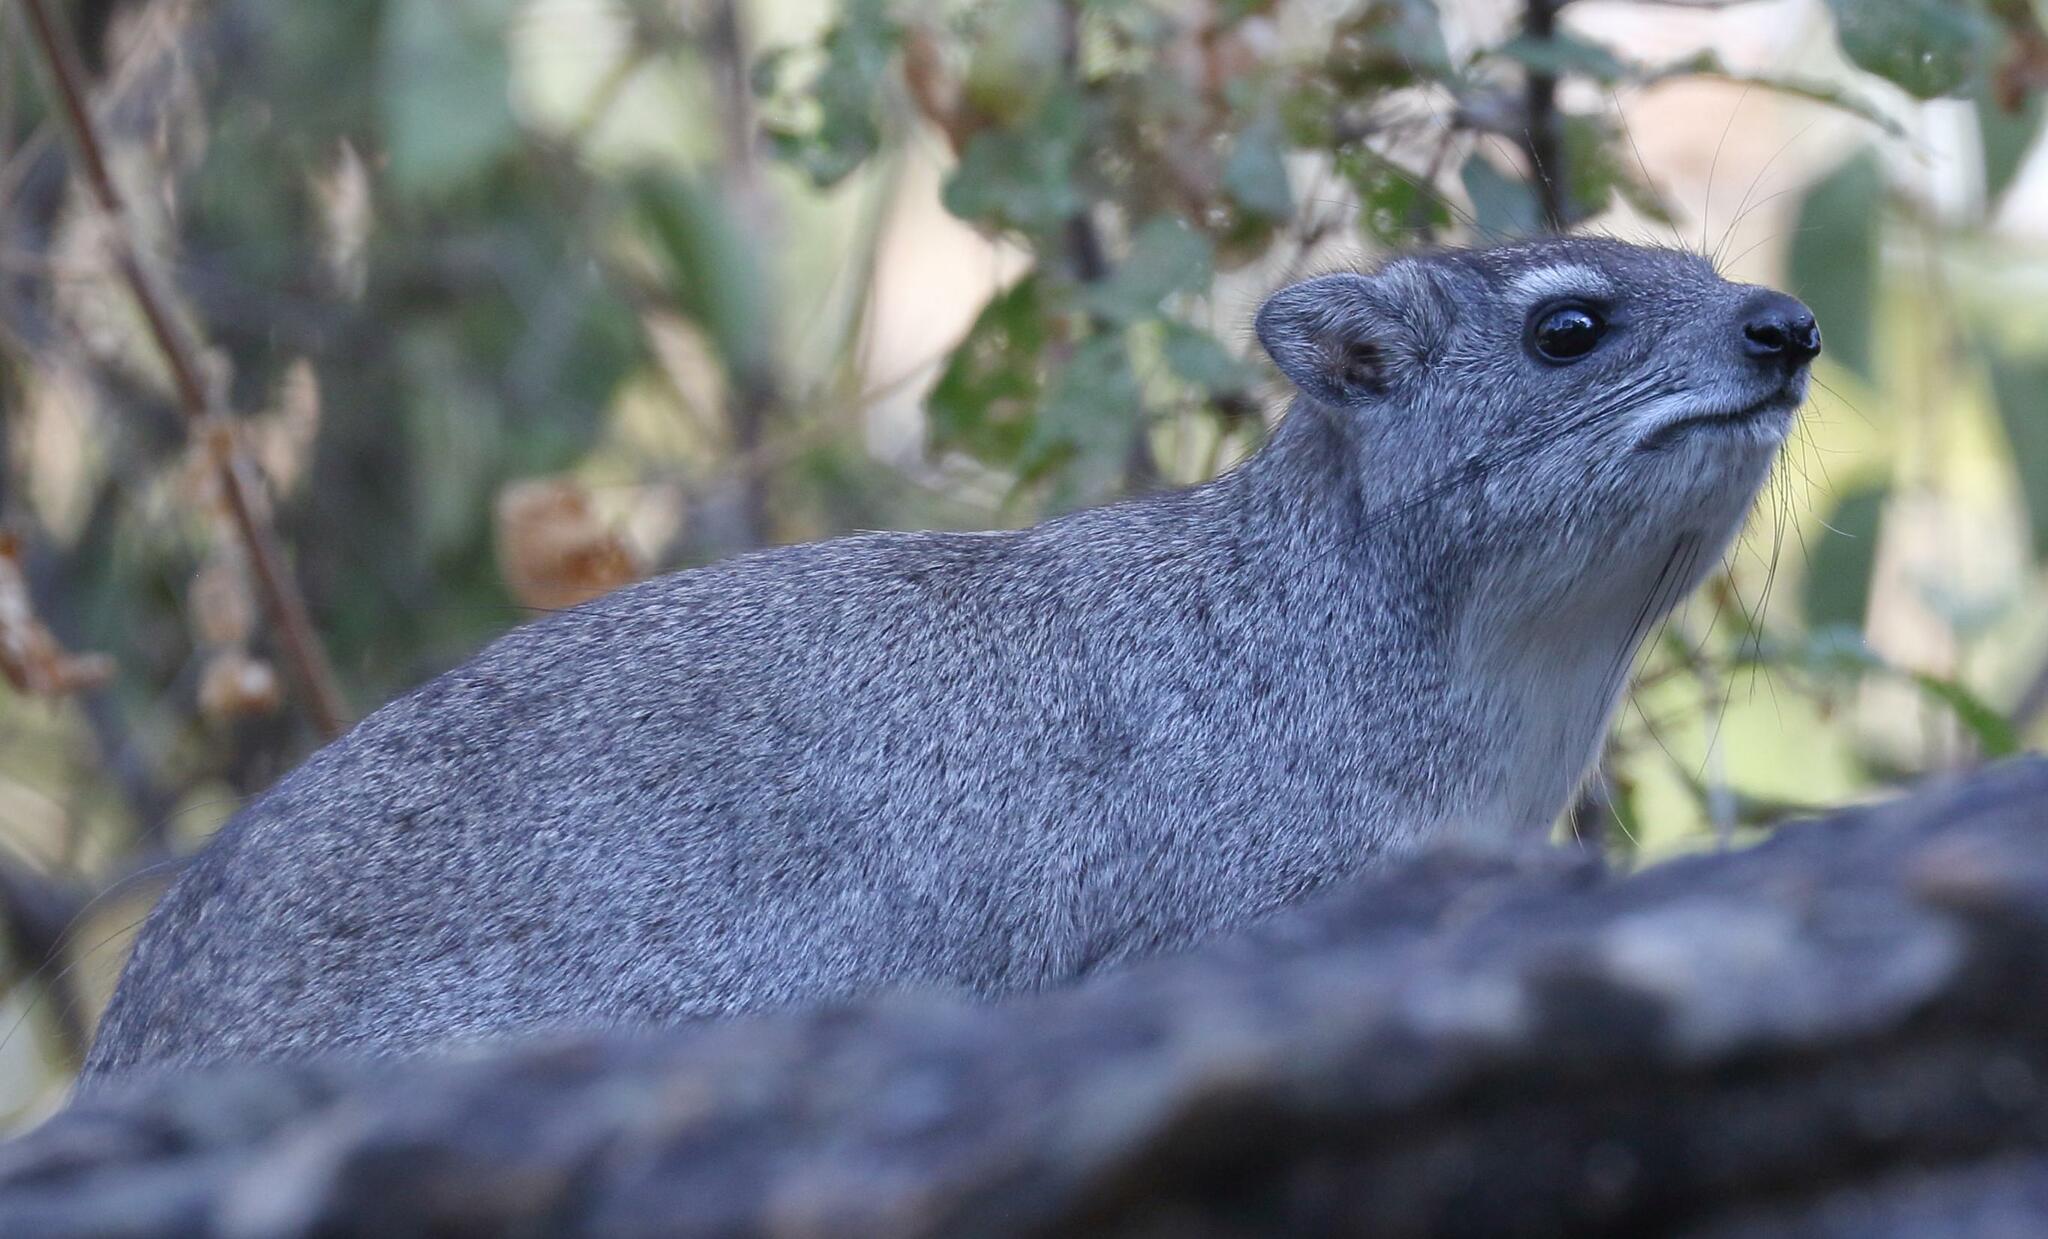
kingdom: Animalia
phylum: Chordata
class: Mammalia
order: Hyracoidea
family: Procaviidae
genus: Heterohyrax
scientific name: Heterohyrax brucei
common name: Bush hyrax
